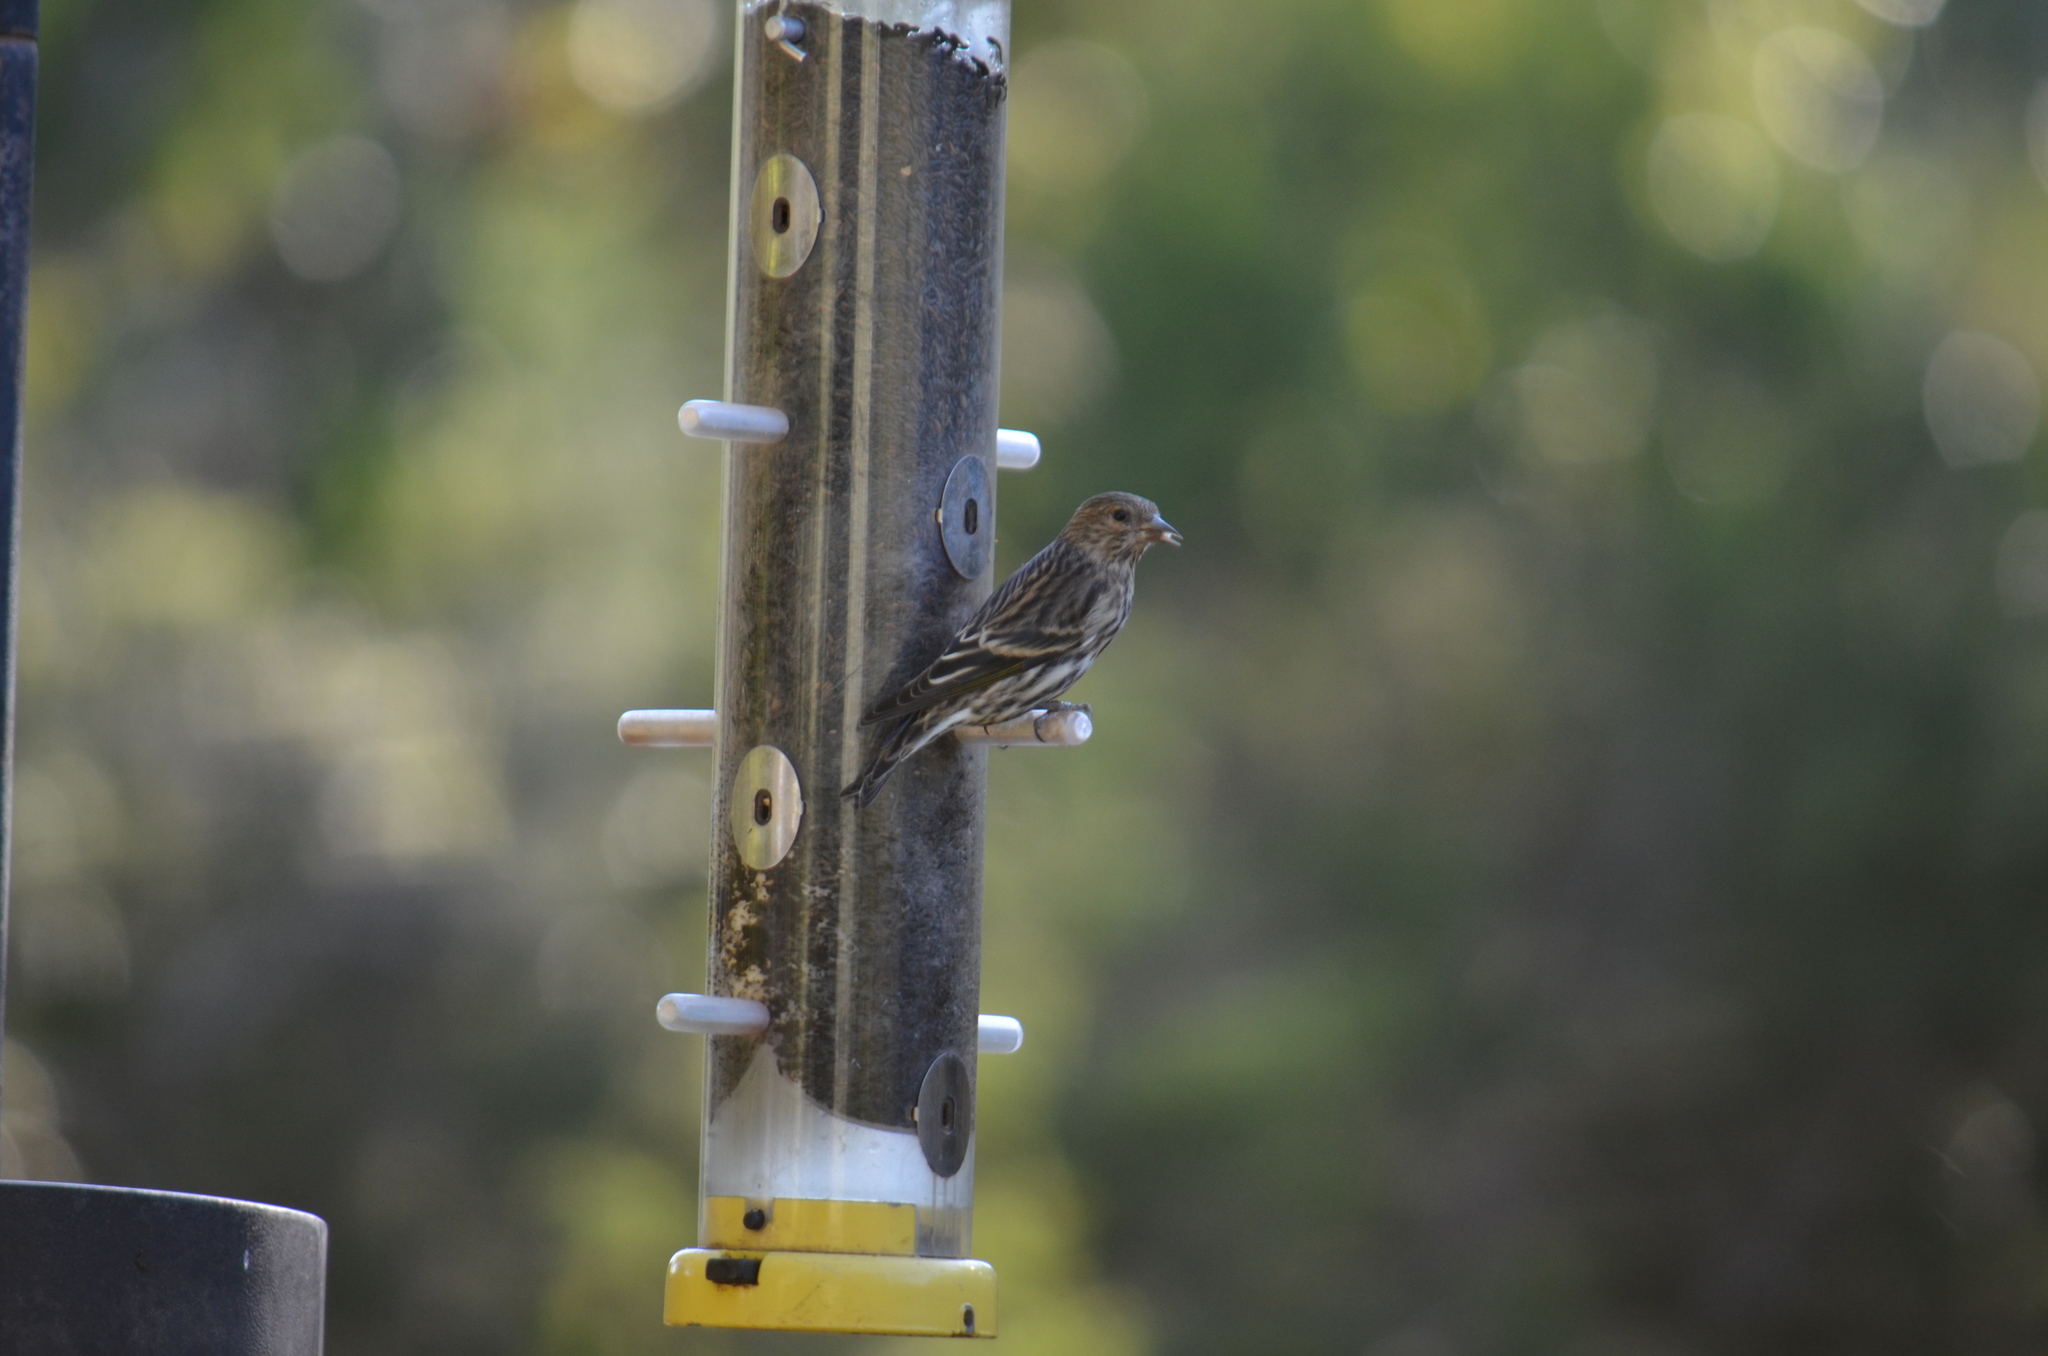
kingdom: Animalia
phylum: Chordata
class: Aves
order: Passeriformes
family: Fringillidae
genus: Spinus
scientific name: Spinus pinus
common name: Pine siskin
